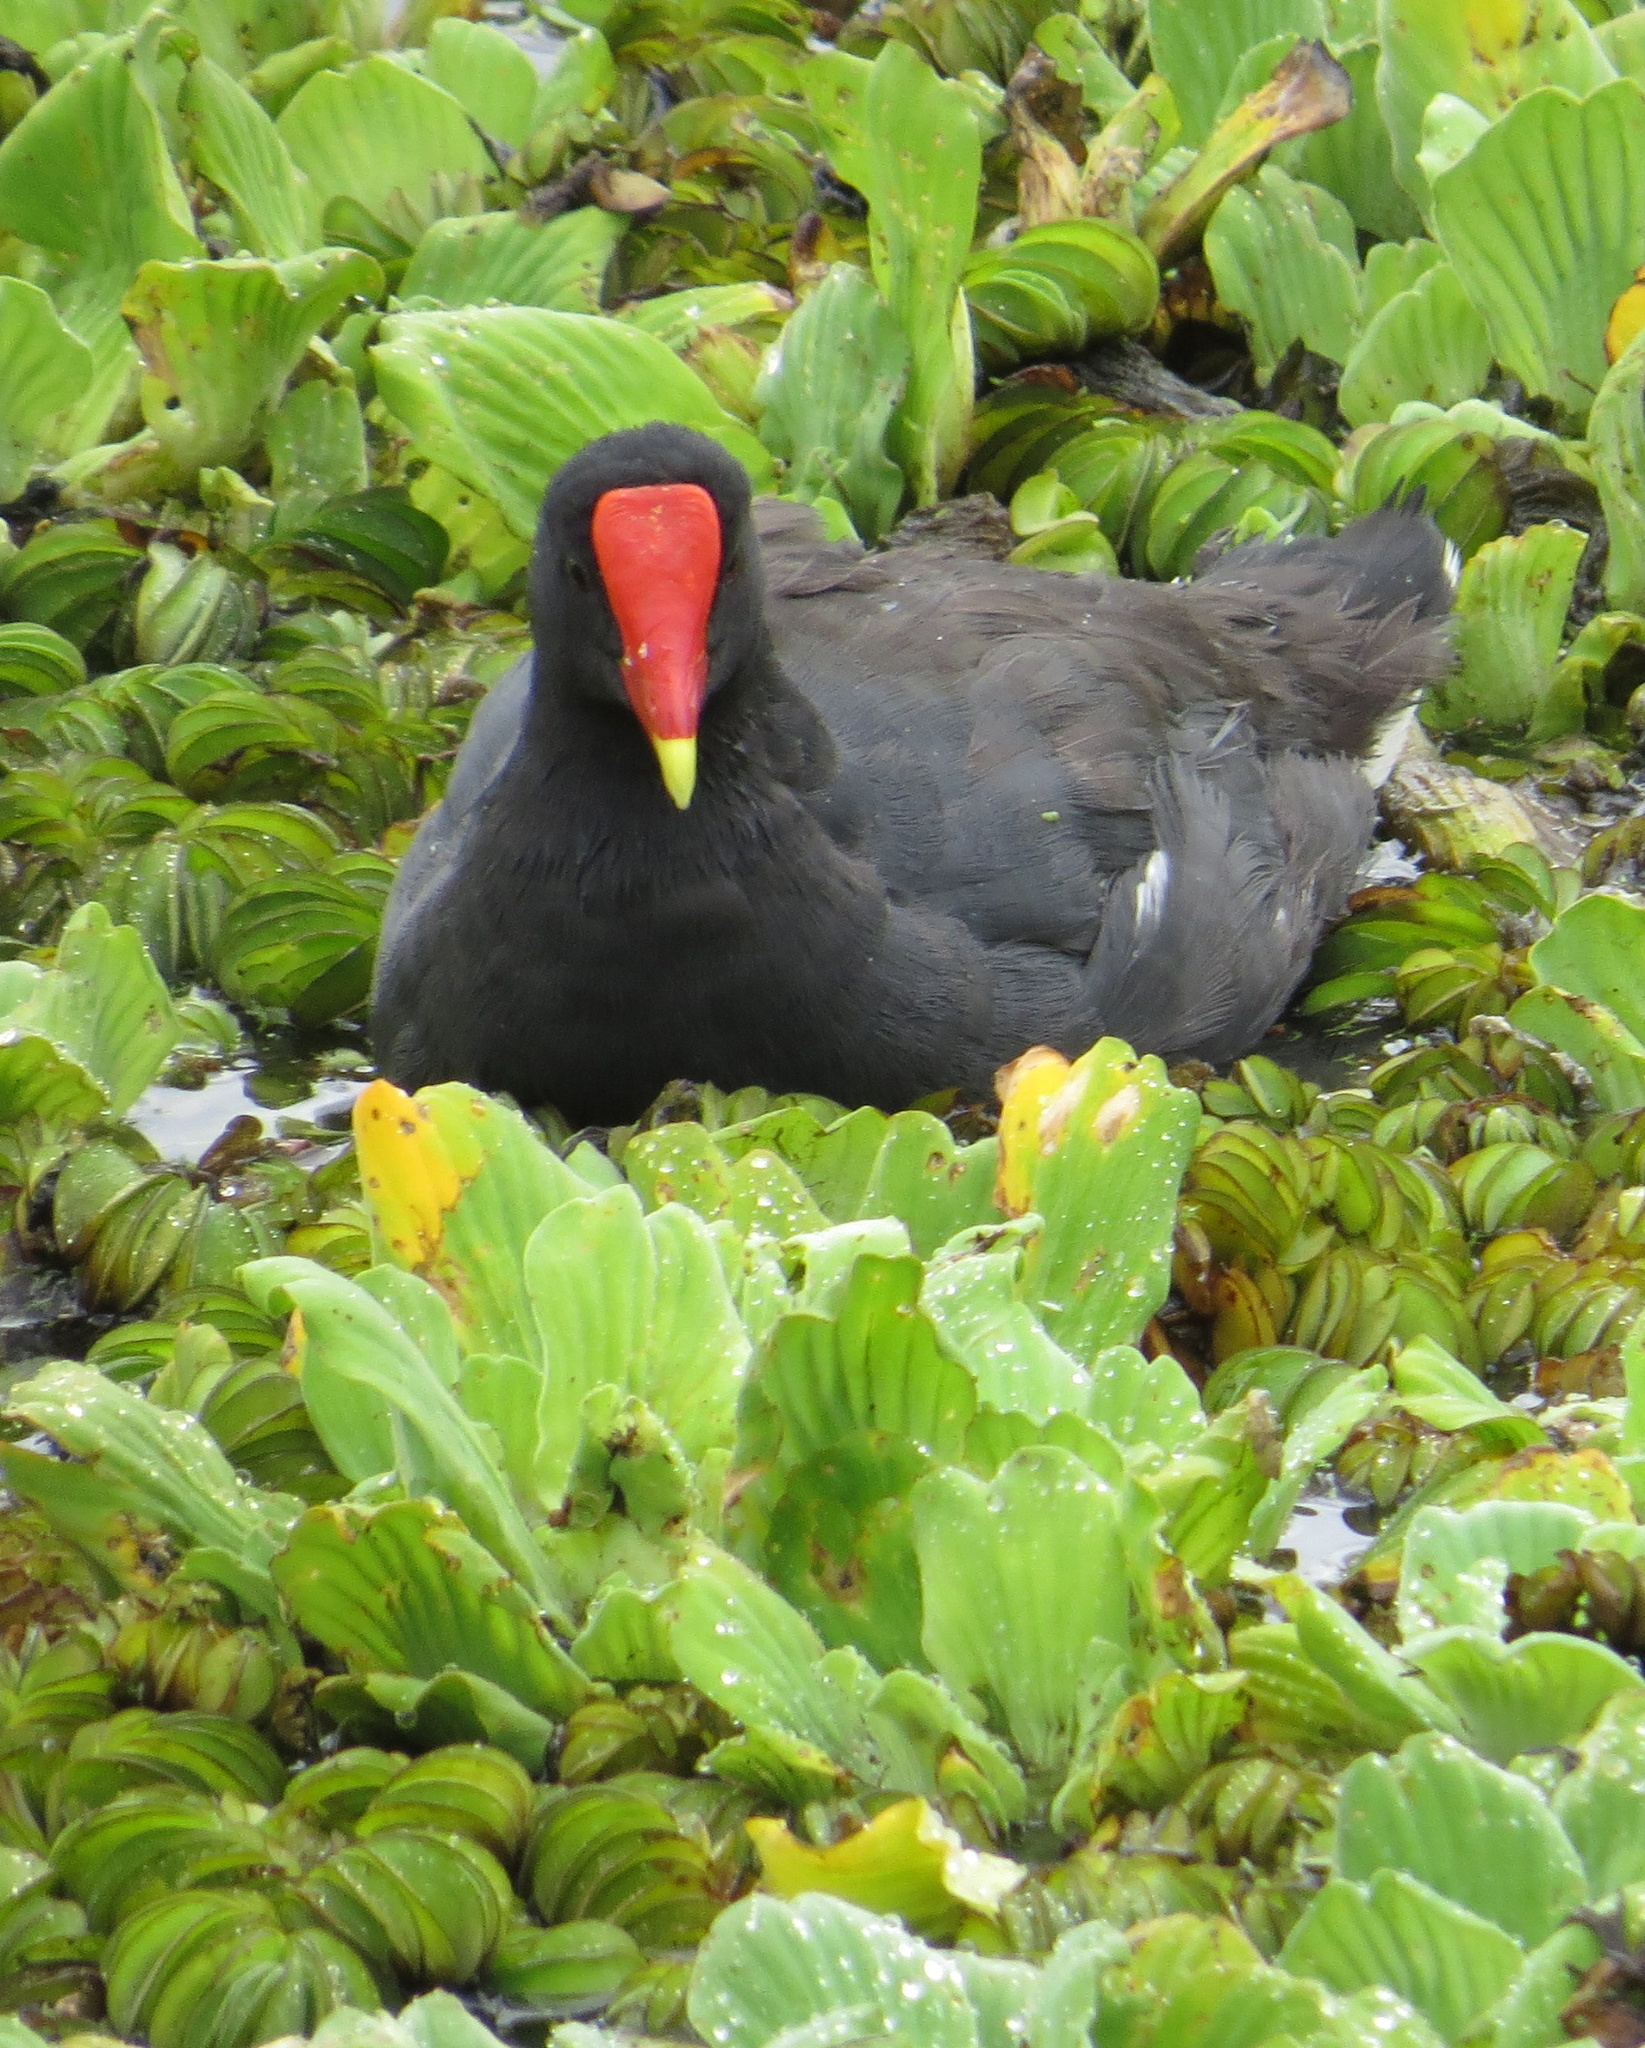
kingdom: Animalia
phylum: Chordata
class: Aves
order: Gruiformes
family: Rallidae
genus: Gallinula
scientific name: Gallinula chloropus
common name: Common moorhen
